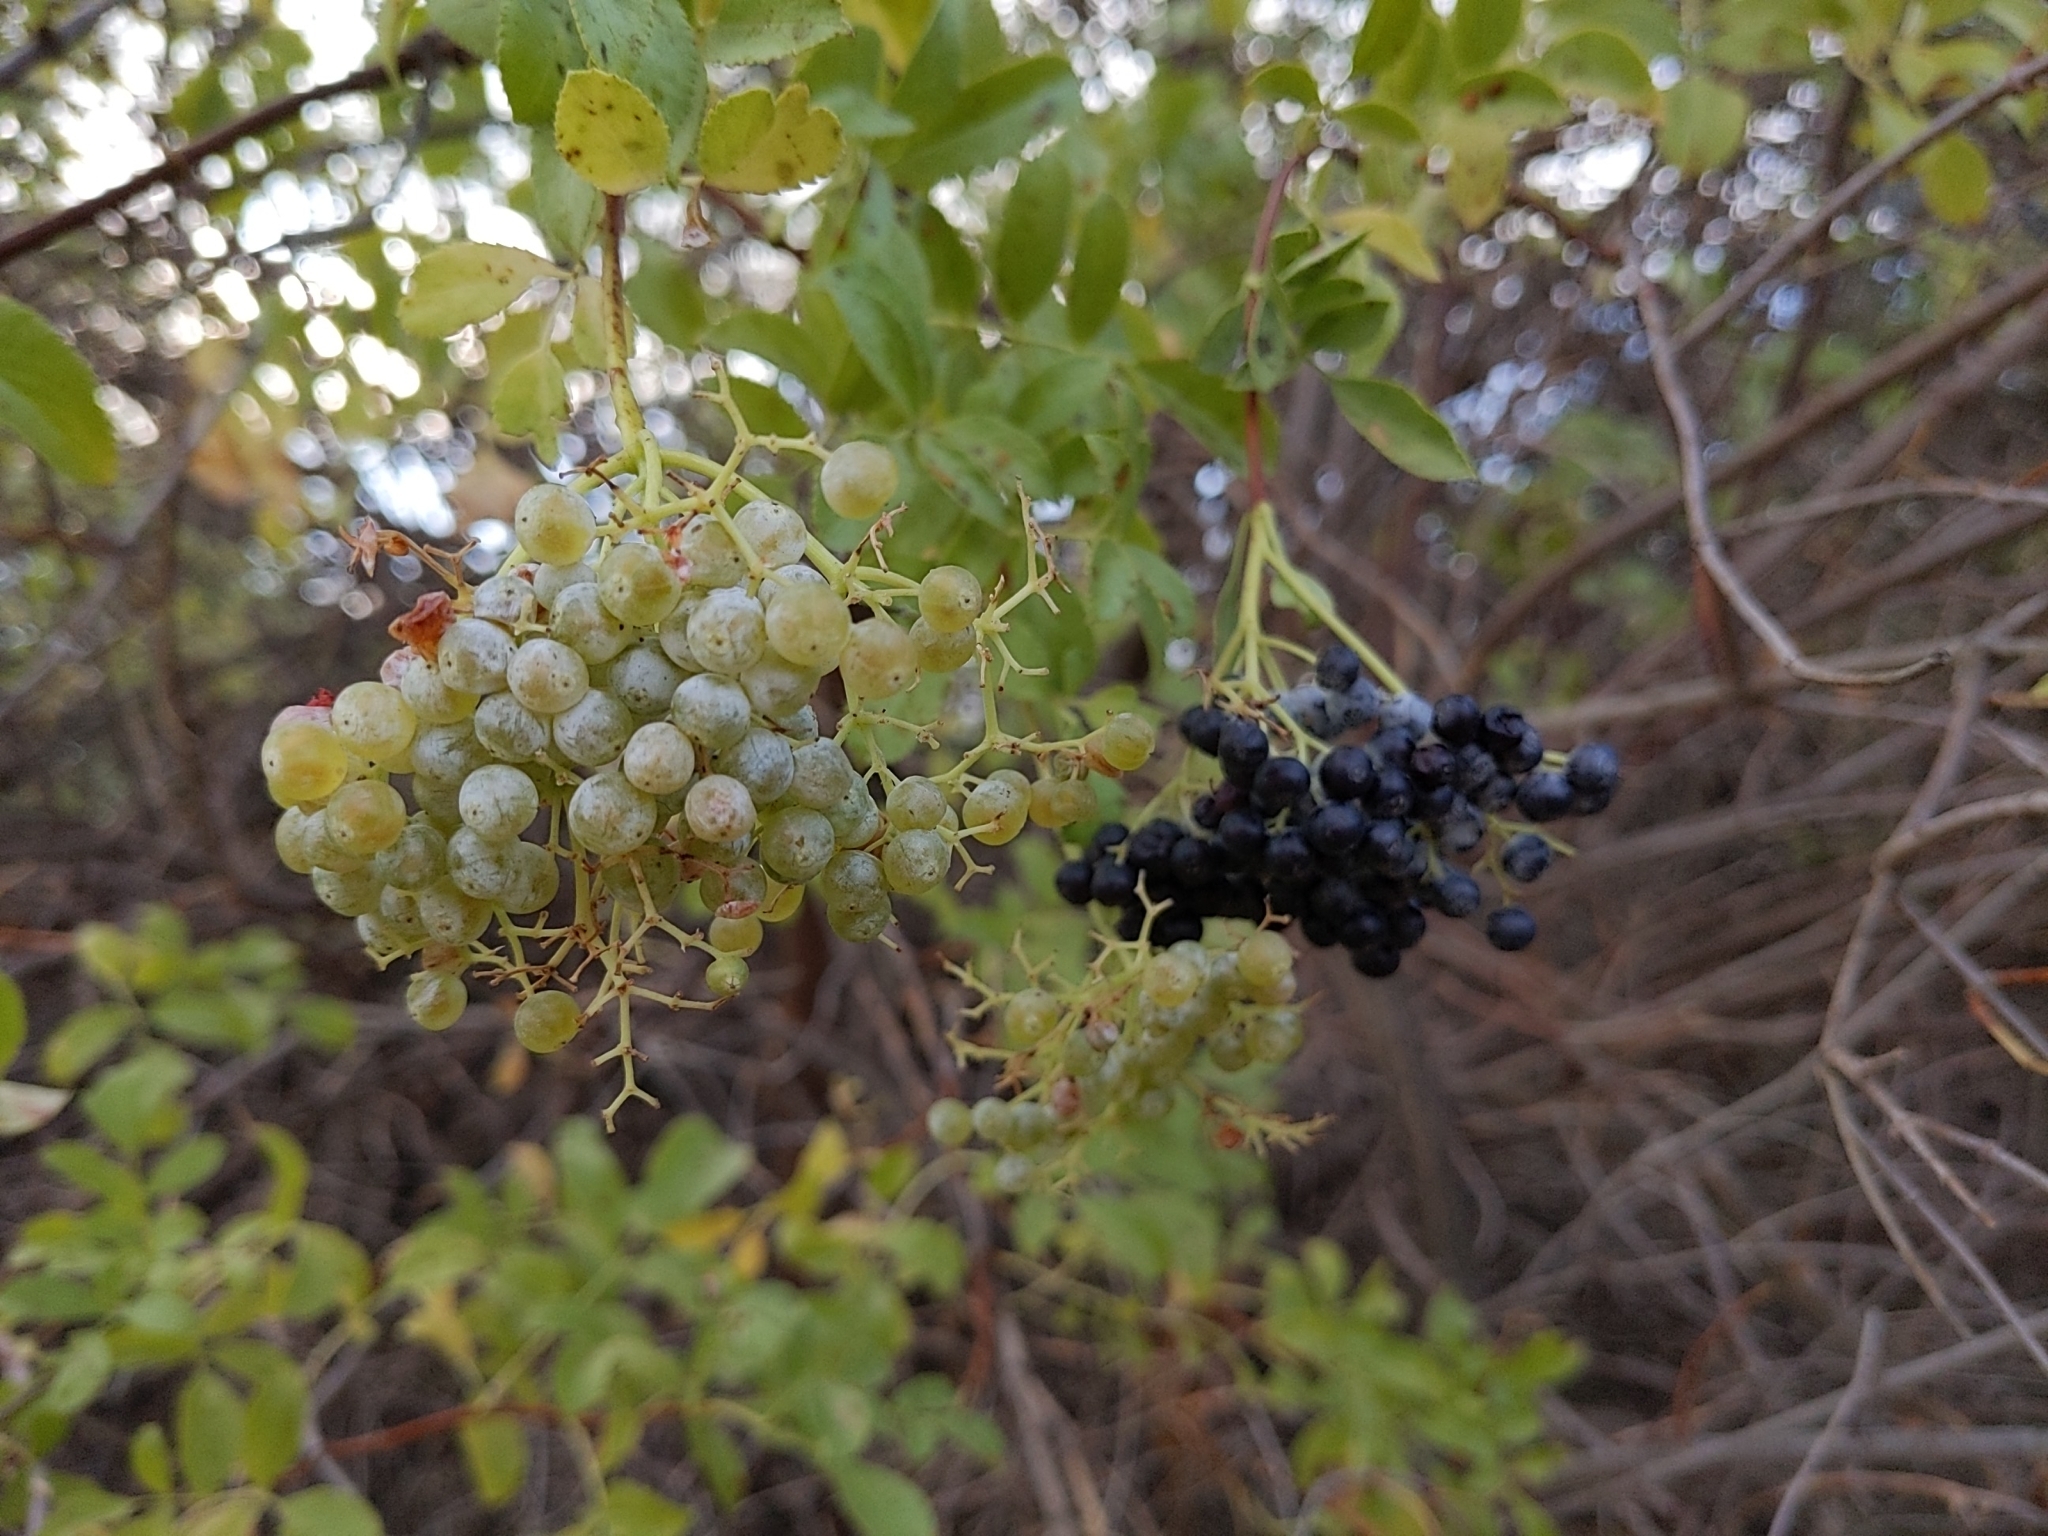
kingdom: Plantae
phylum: Tracheophyta
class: Magnoliopsida
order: Dipsacales
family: Viburnaceae
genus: Sambucus
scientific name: Sambucus cerulea
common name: Blue elder
